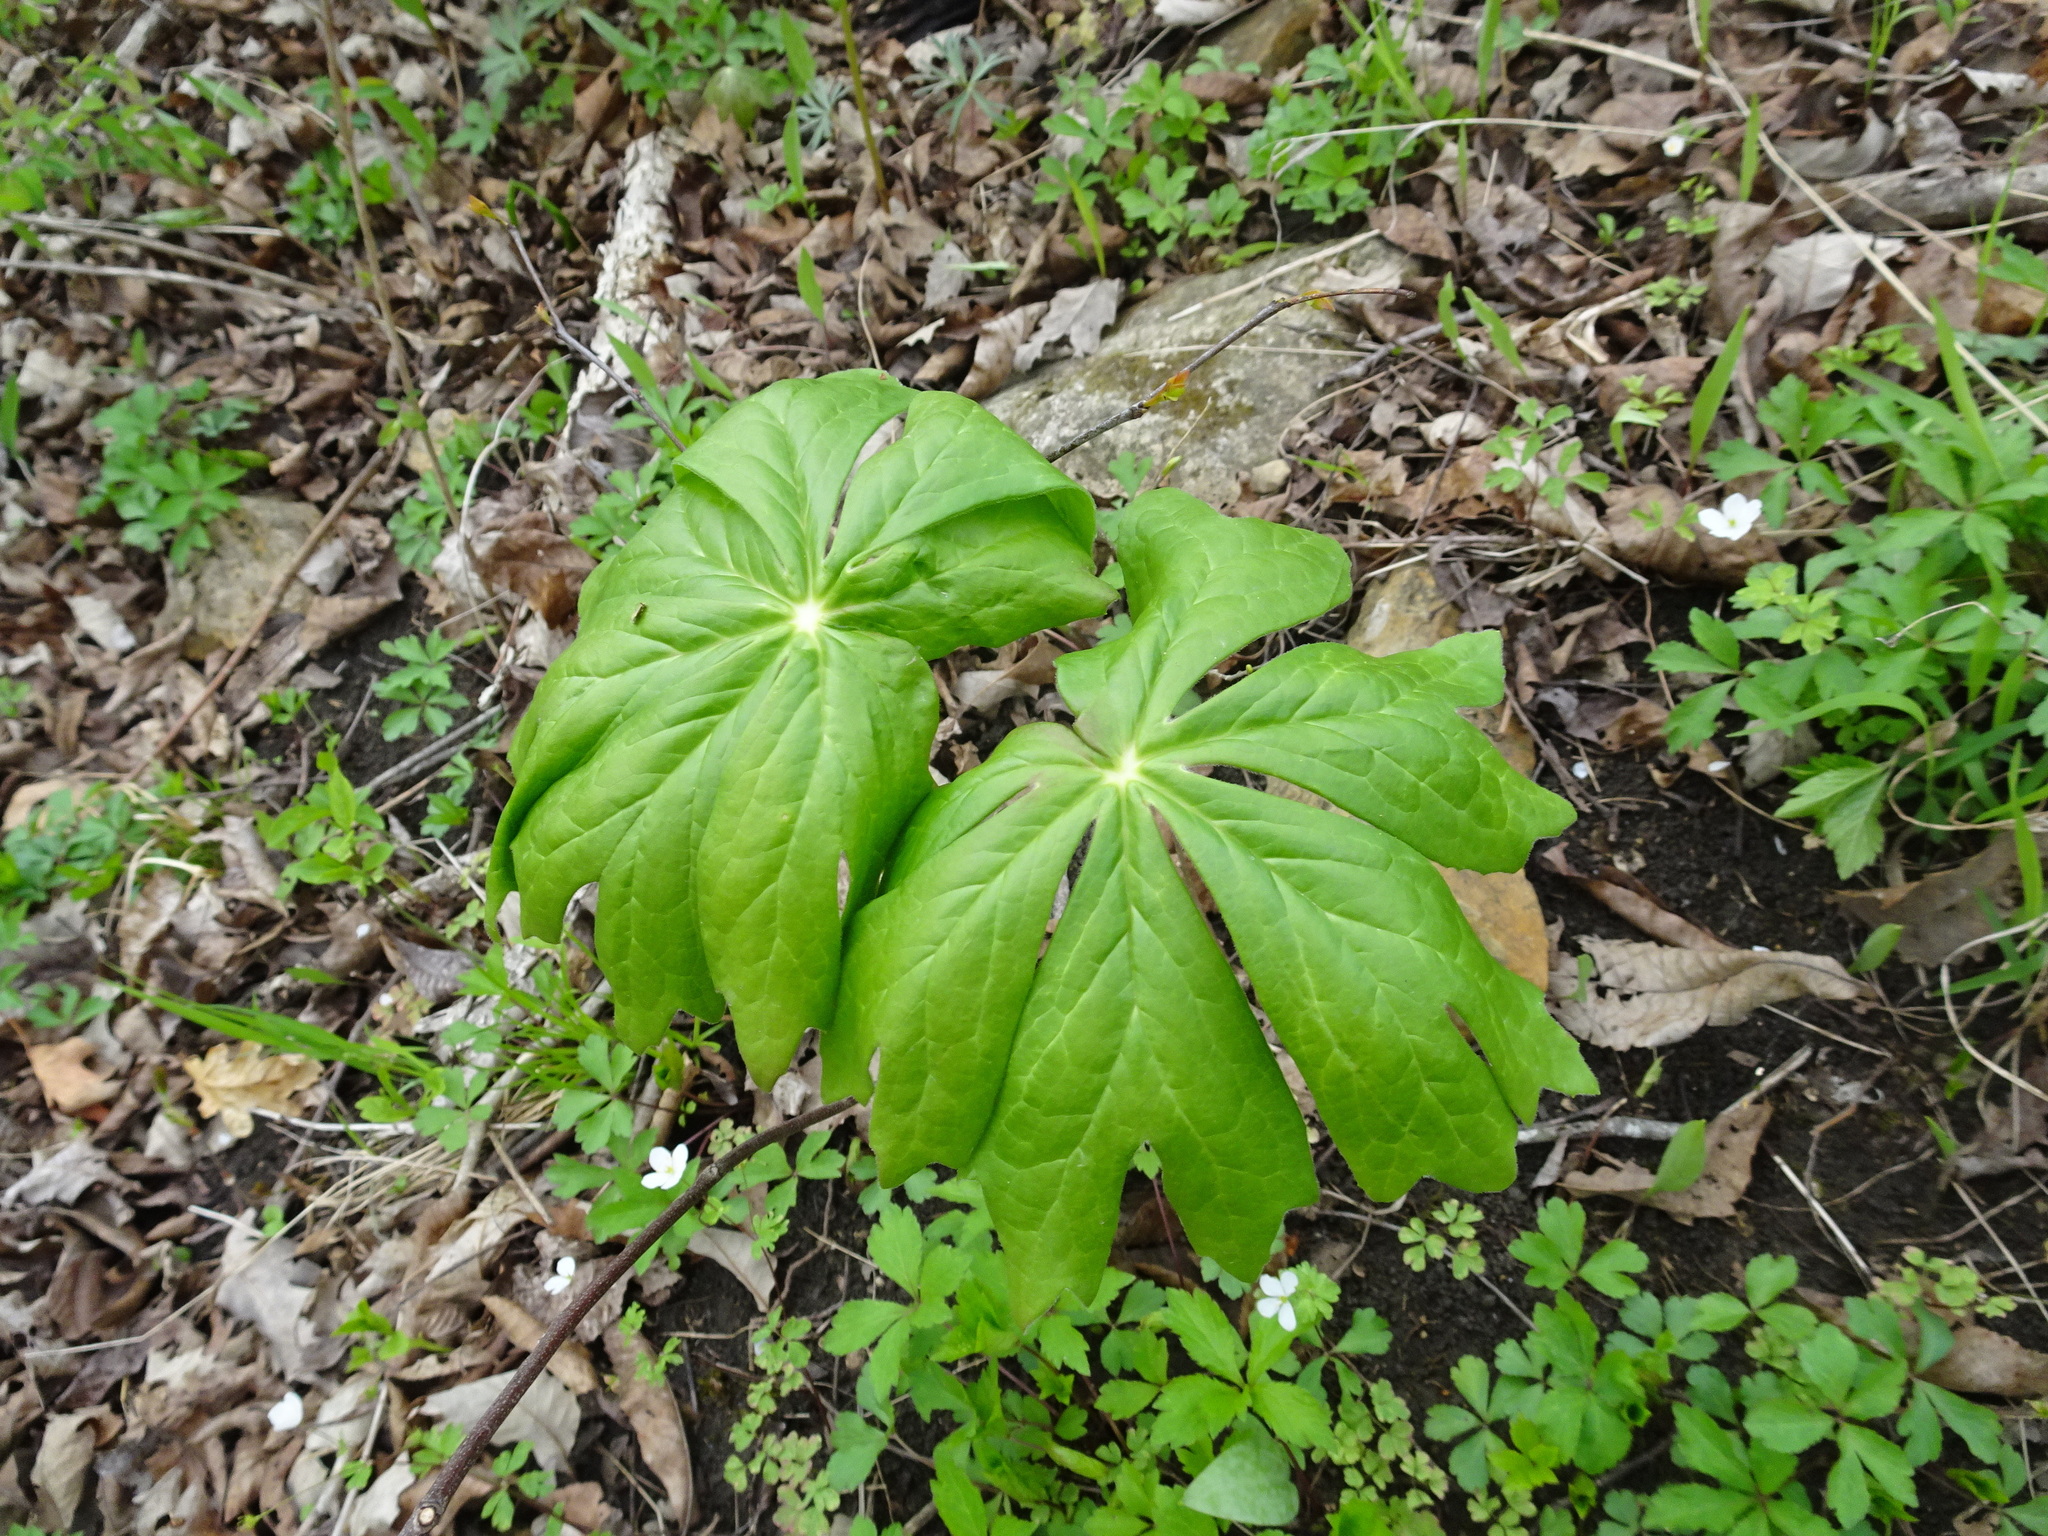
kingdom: Plantae
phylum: Tracheophyta
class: Magnoliopsida
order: Ranunculales
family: Berberidaceae
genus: Podophyllum
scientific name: Podophyllum peltatum
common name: Wild mandrake
